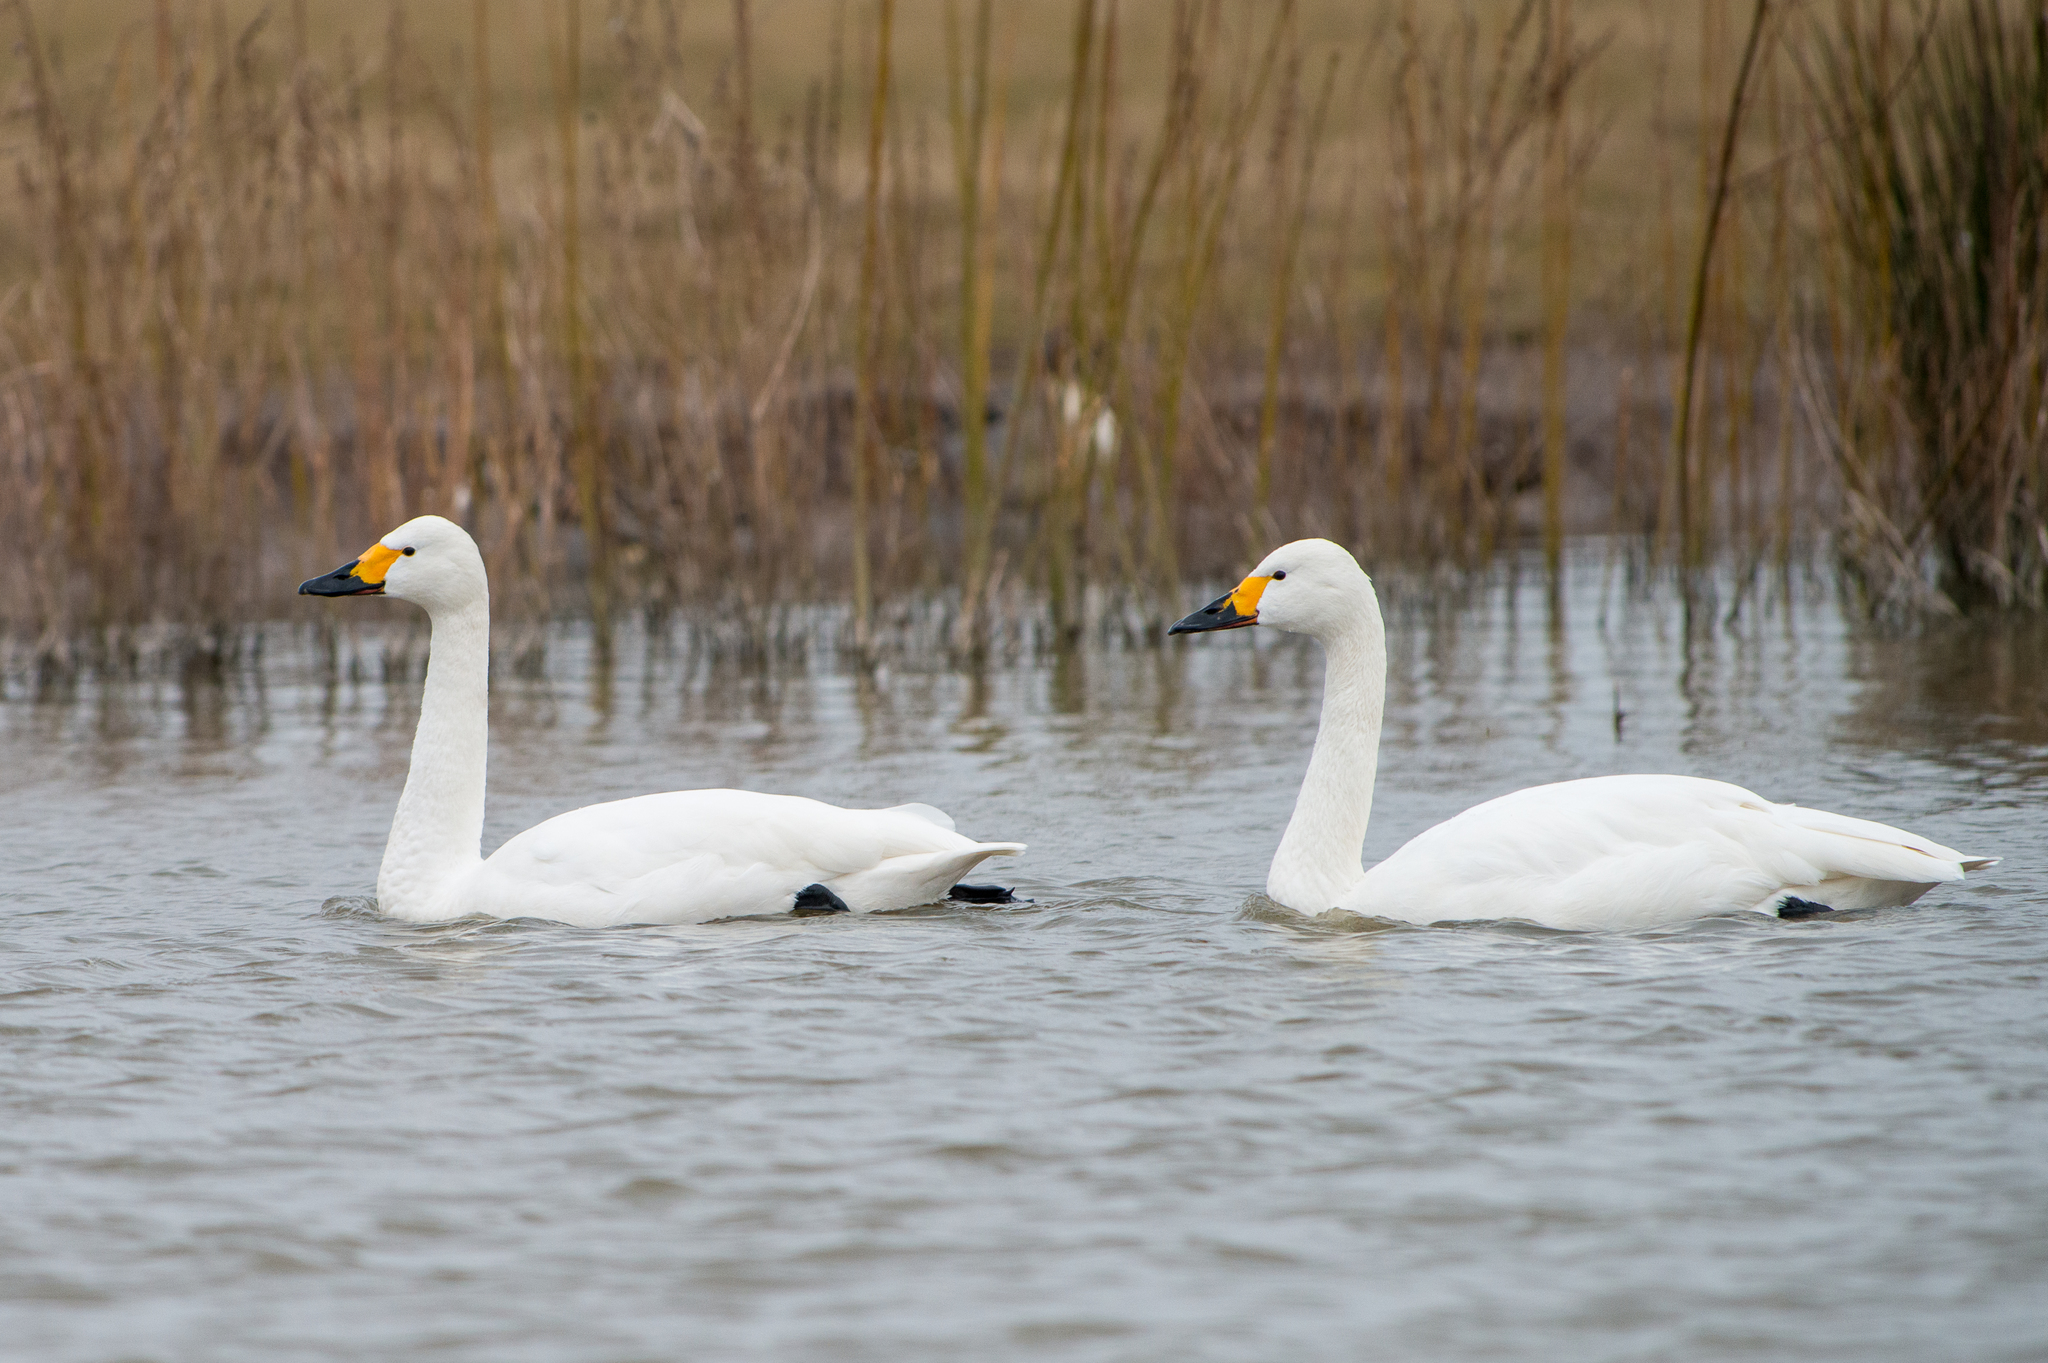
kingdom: Animalia
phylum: Chordata
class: Aves
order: Anseriformes
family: Anatidae
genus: Cygnus
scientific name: Cygnus columbianus
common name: Tundra swan
